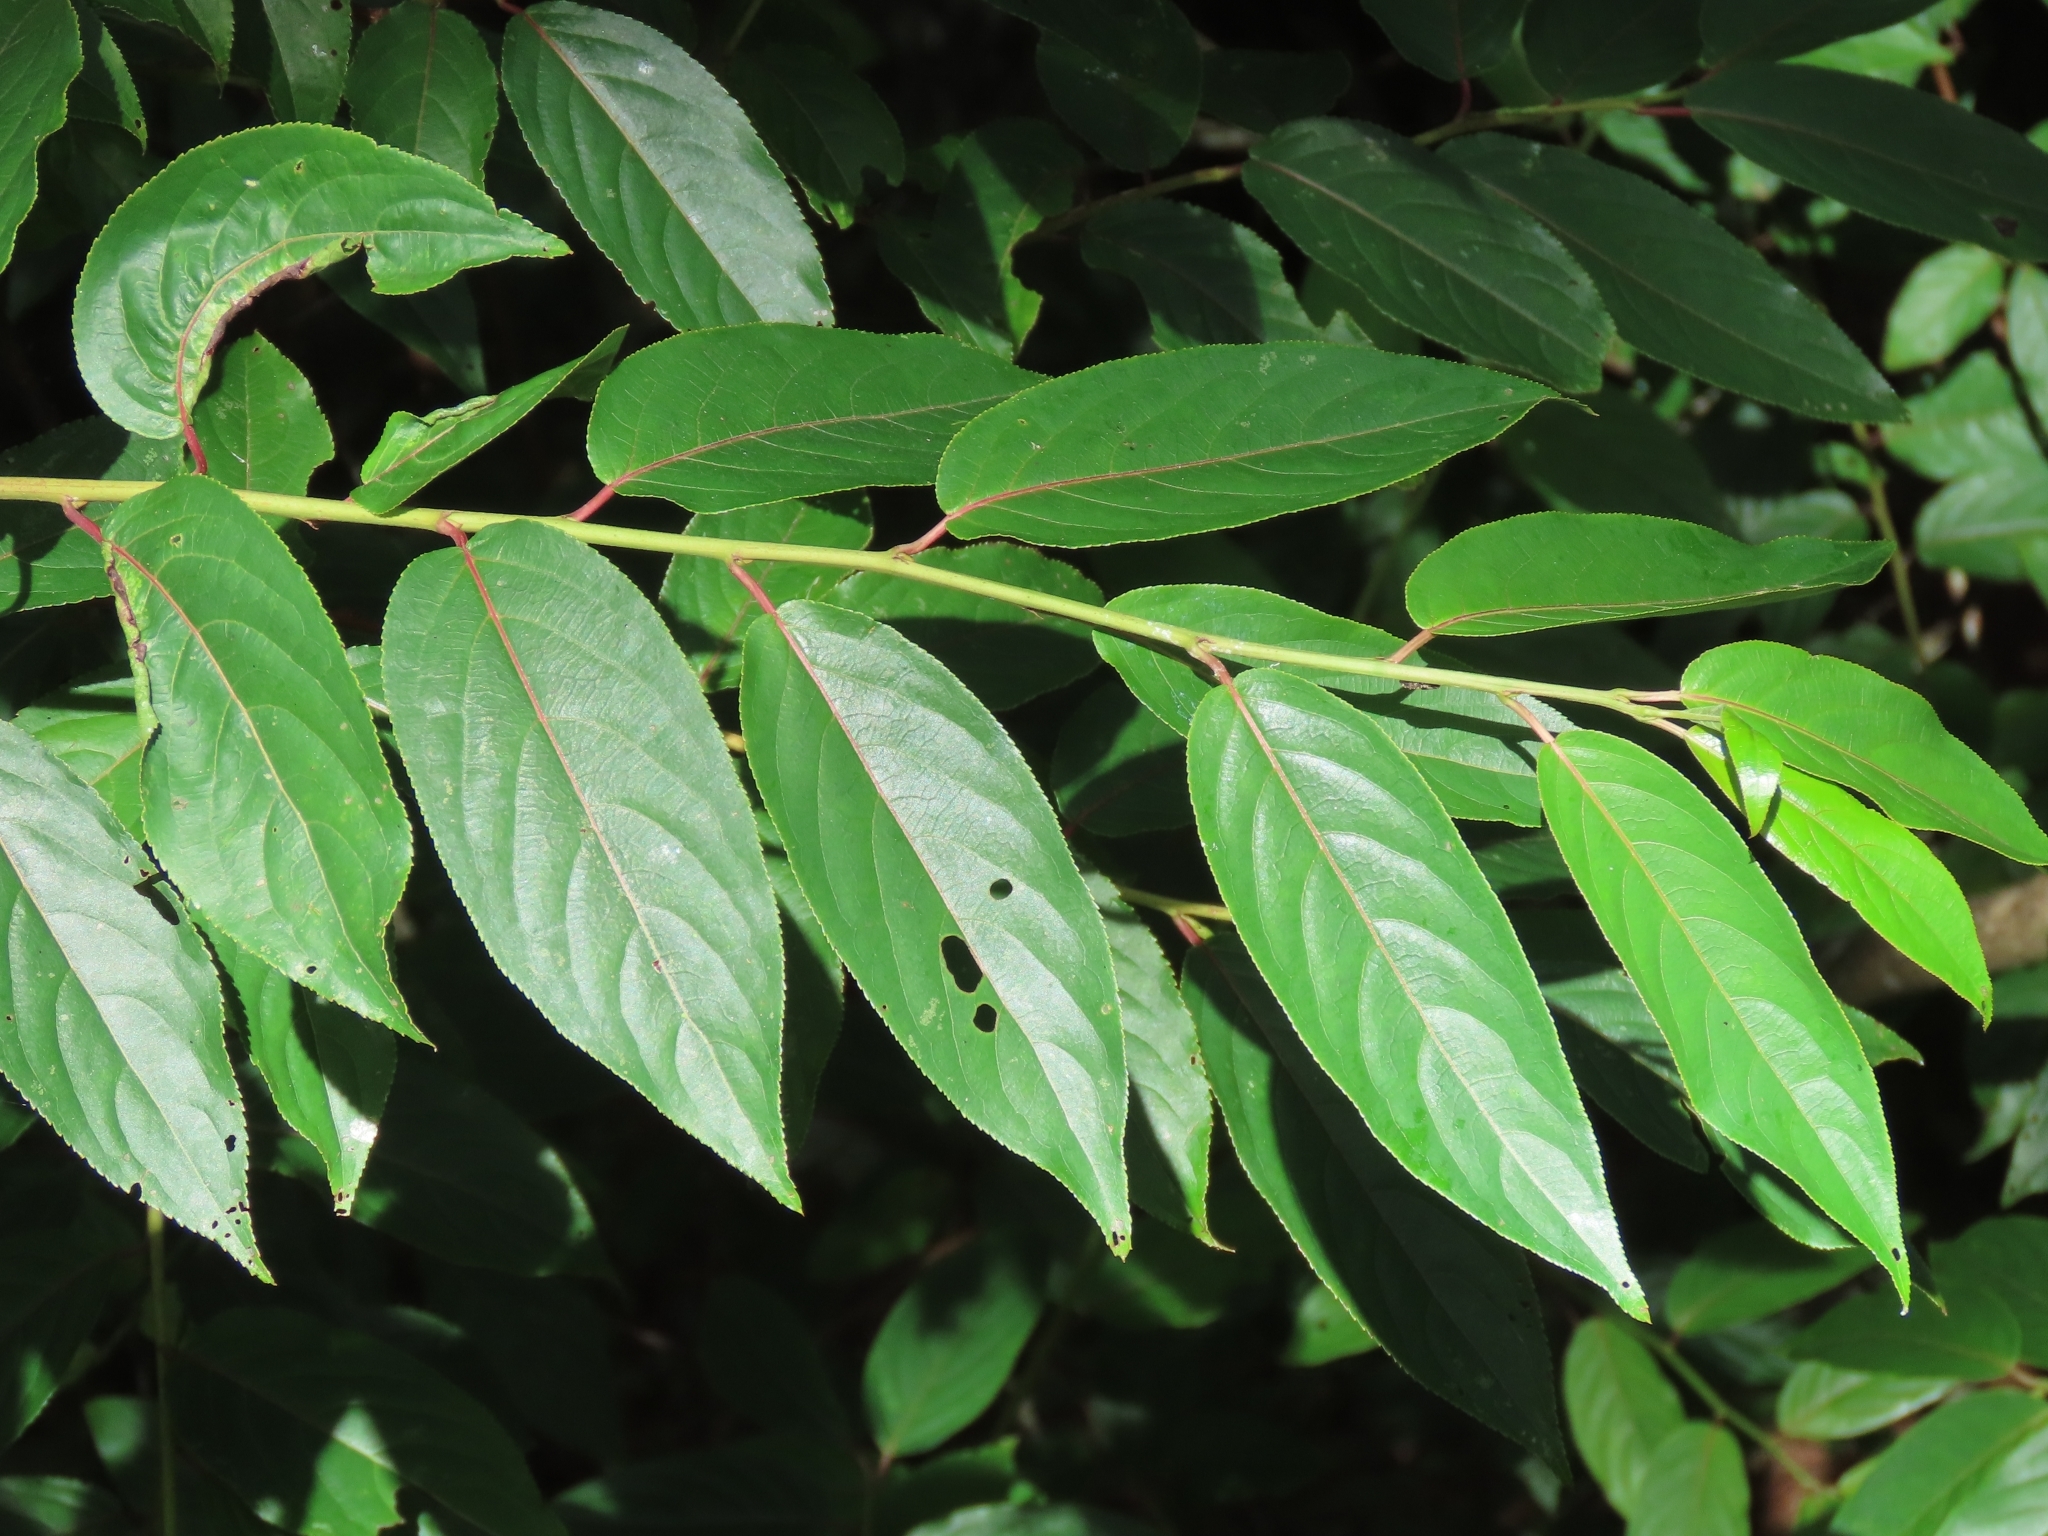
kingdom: Plantae
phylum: Tracheophyta
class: Magnoliopsida
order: Crossosomatales
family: Stachyuraceae
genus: Stachyurus
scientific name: Stachyurus himalaicus
